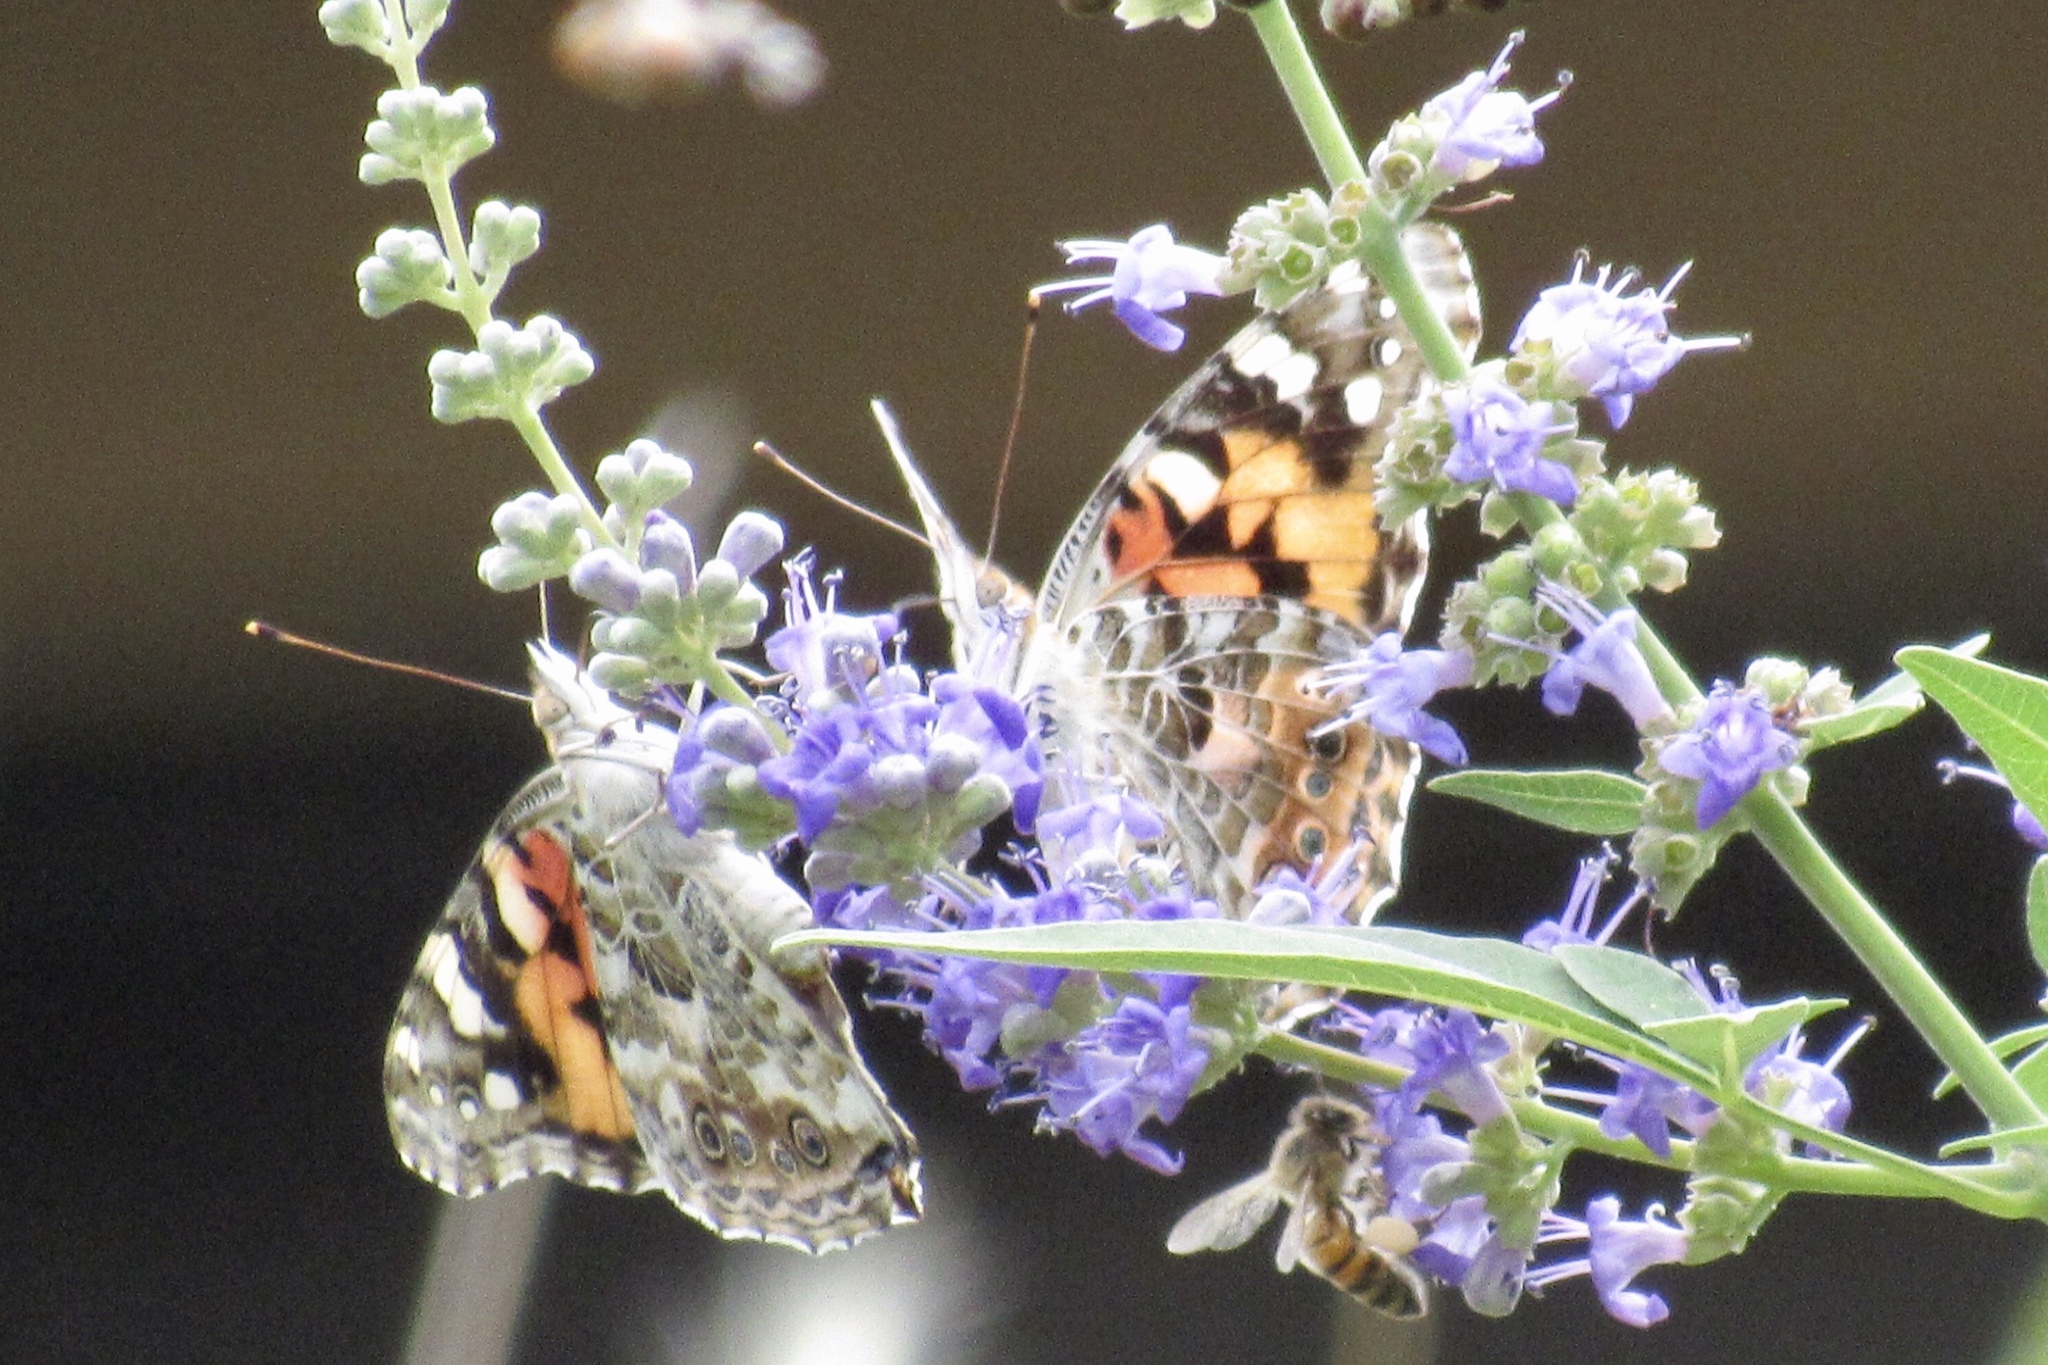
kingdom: Animalia
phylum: Arthropoda
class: Insecta
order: Lepidoptera
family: Nymphalidae
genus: Vanessa
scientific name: Vanessa cardui
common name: Painted lady
